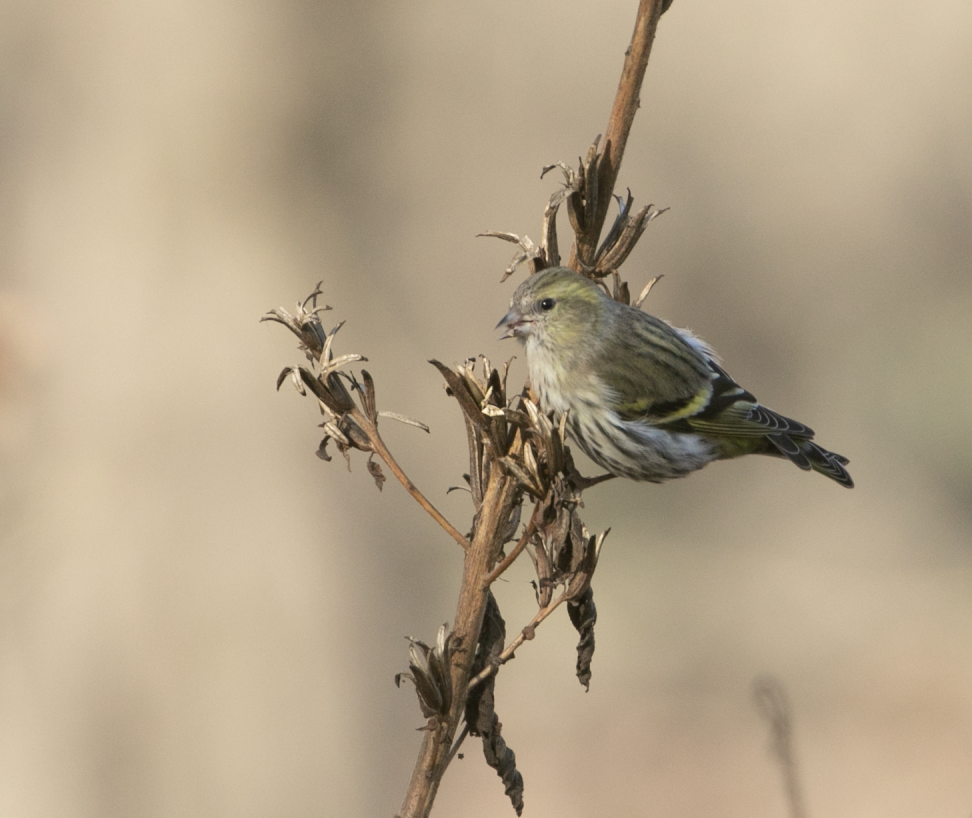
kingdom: Animalia
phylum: Chordata
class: Aves
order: Passeriformes
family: Fringillidae
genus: Spinus
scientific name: Spinus spinus
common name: Eurasian siskin
